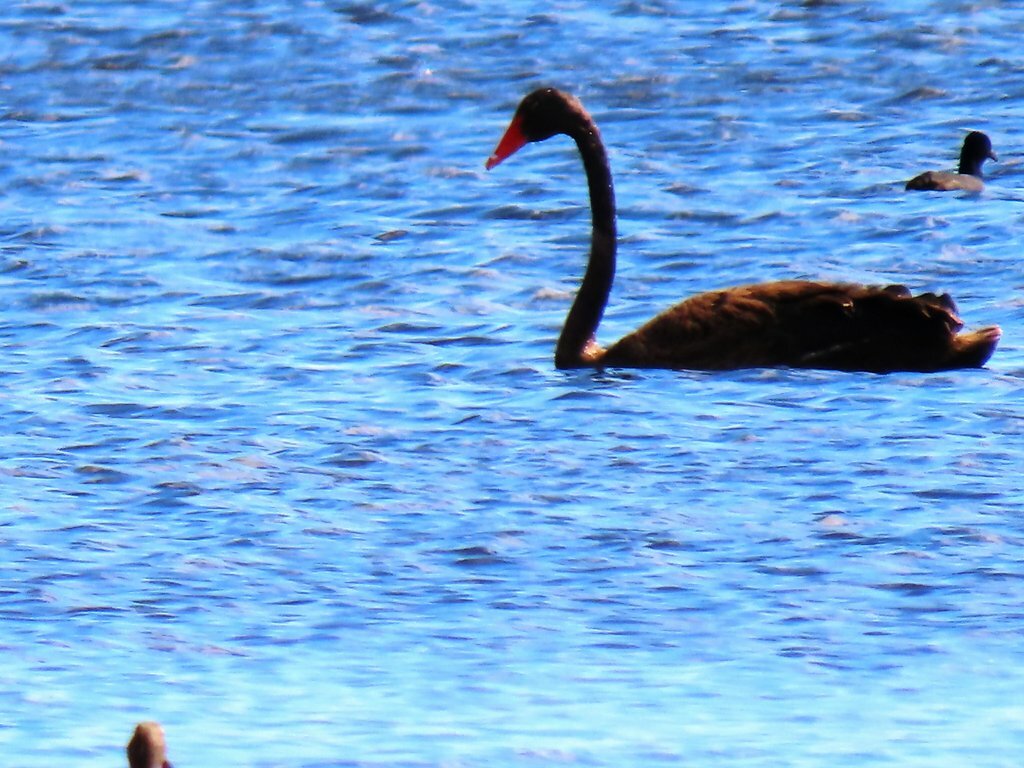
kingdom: Animalia
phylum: Chordata
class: Aves
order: Anseriformes
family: Anatidae
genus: Cygnus
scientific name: Cygnus atratus
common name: Black swan
